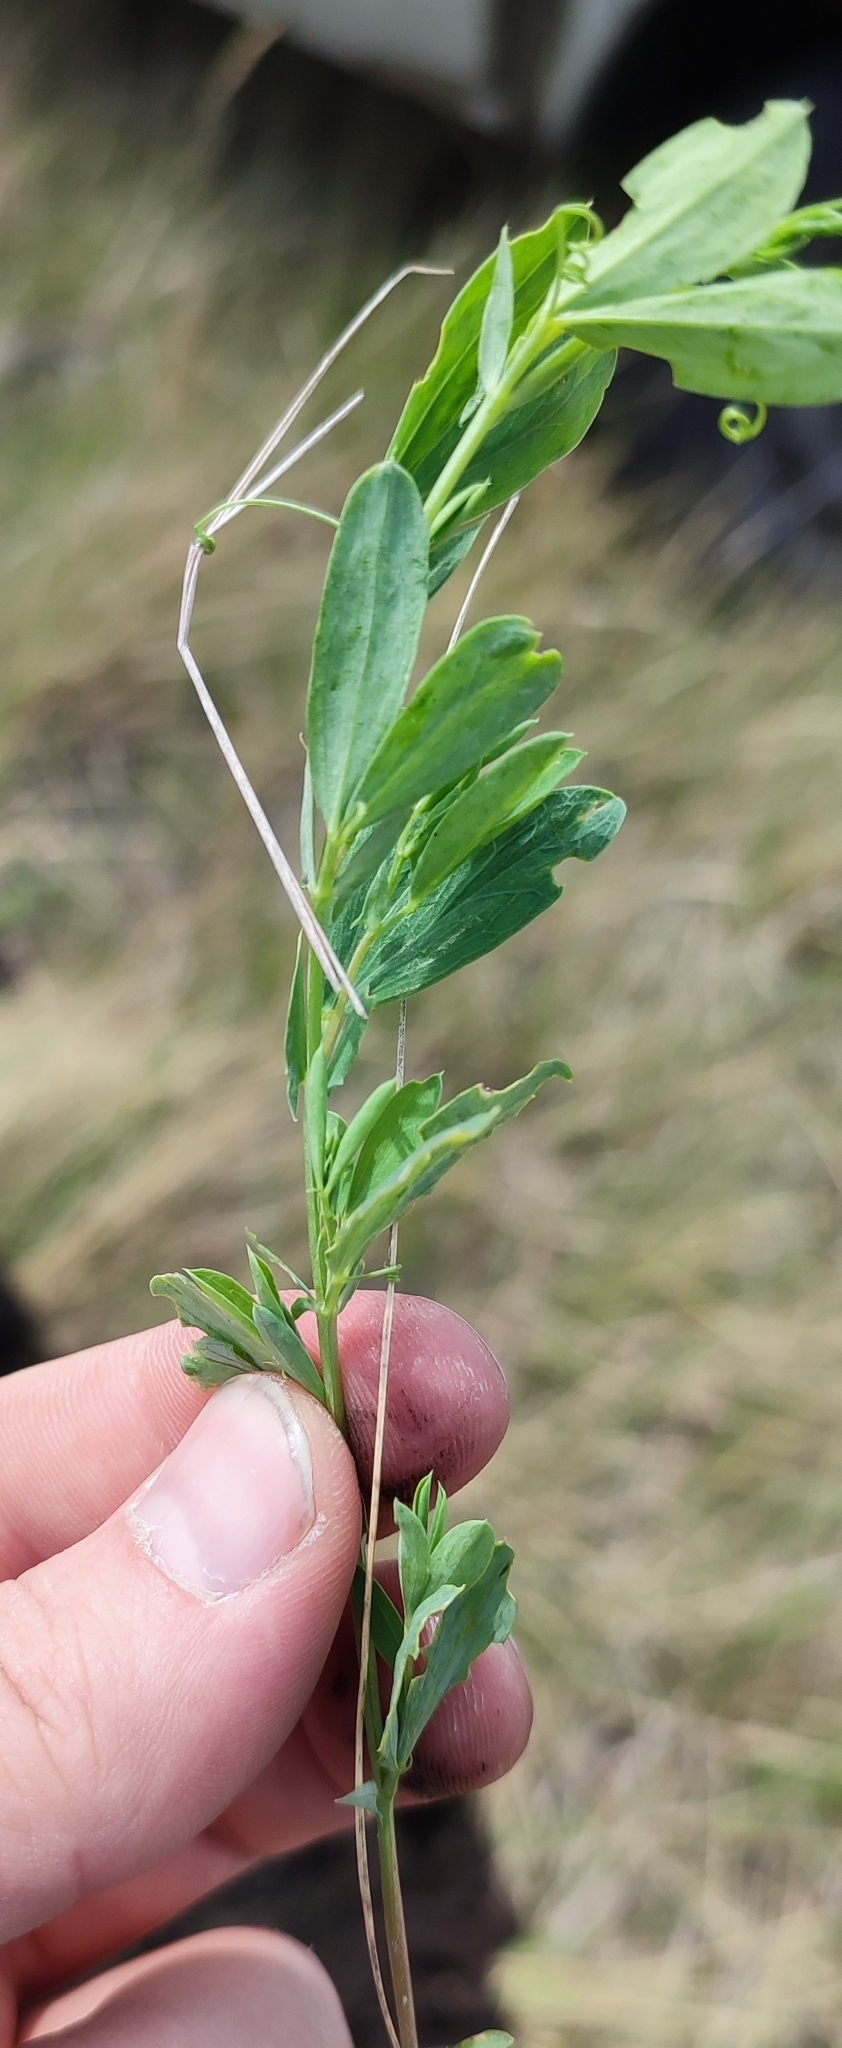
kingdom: Plantae
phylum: Tracheophyta
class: Magnoliopsida
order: Fabales
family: Fabaceae
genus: Lathyrus
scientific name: Lathyrus tuberosus
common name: Tuberous pea
